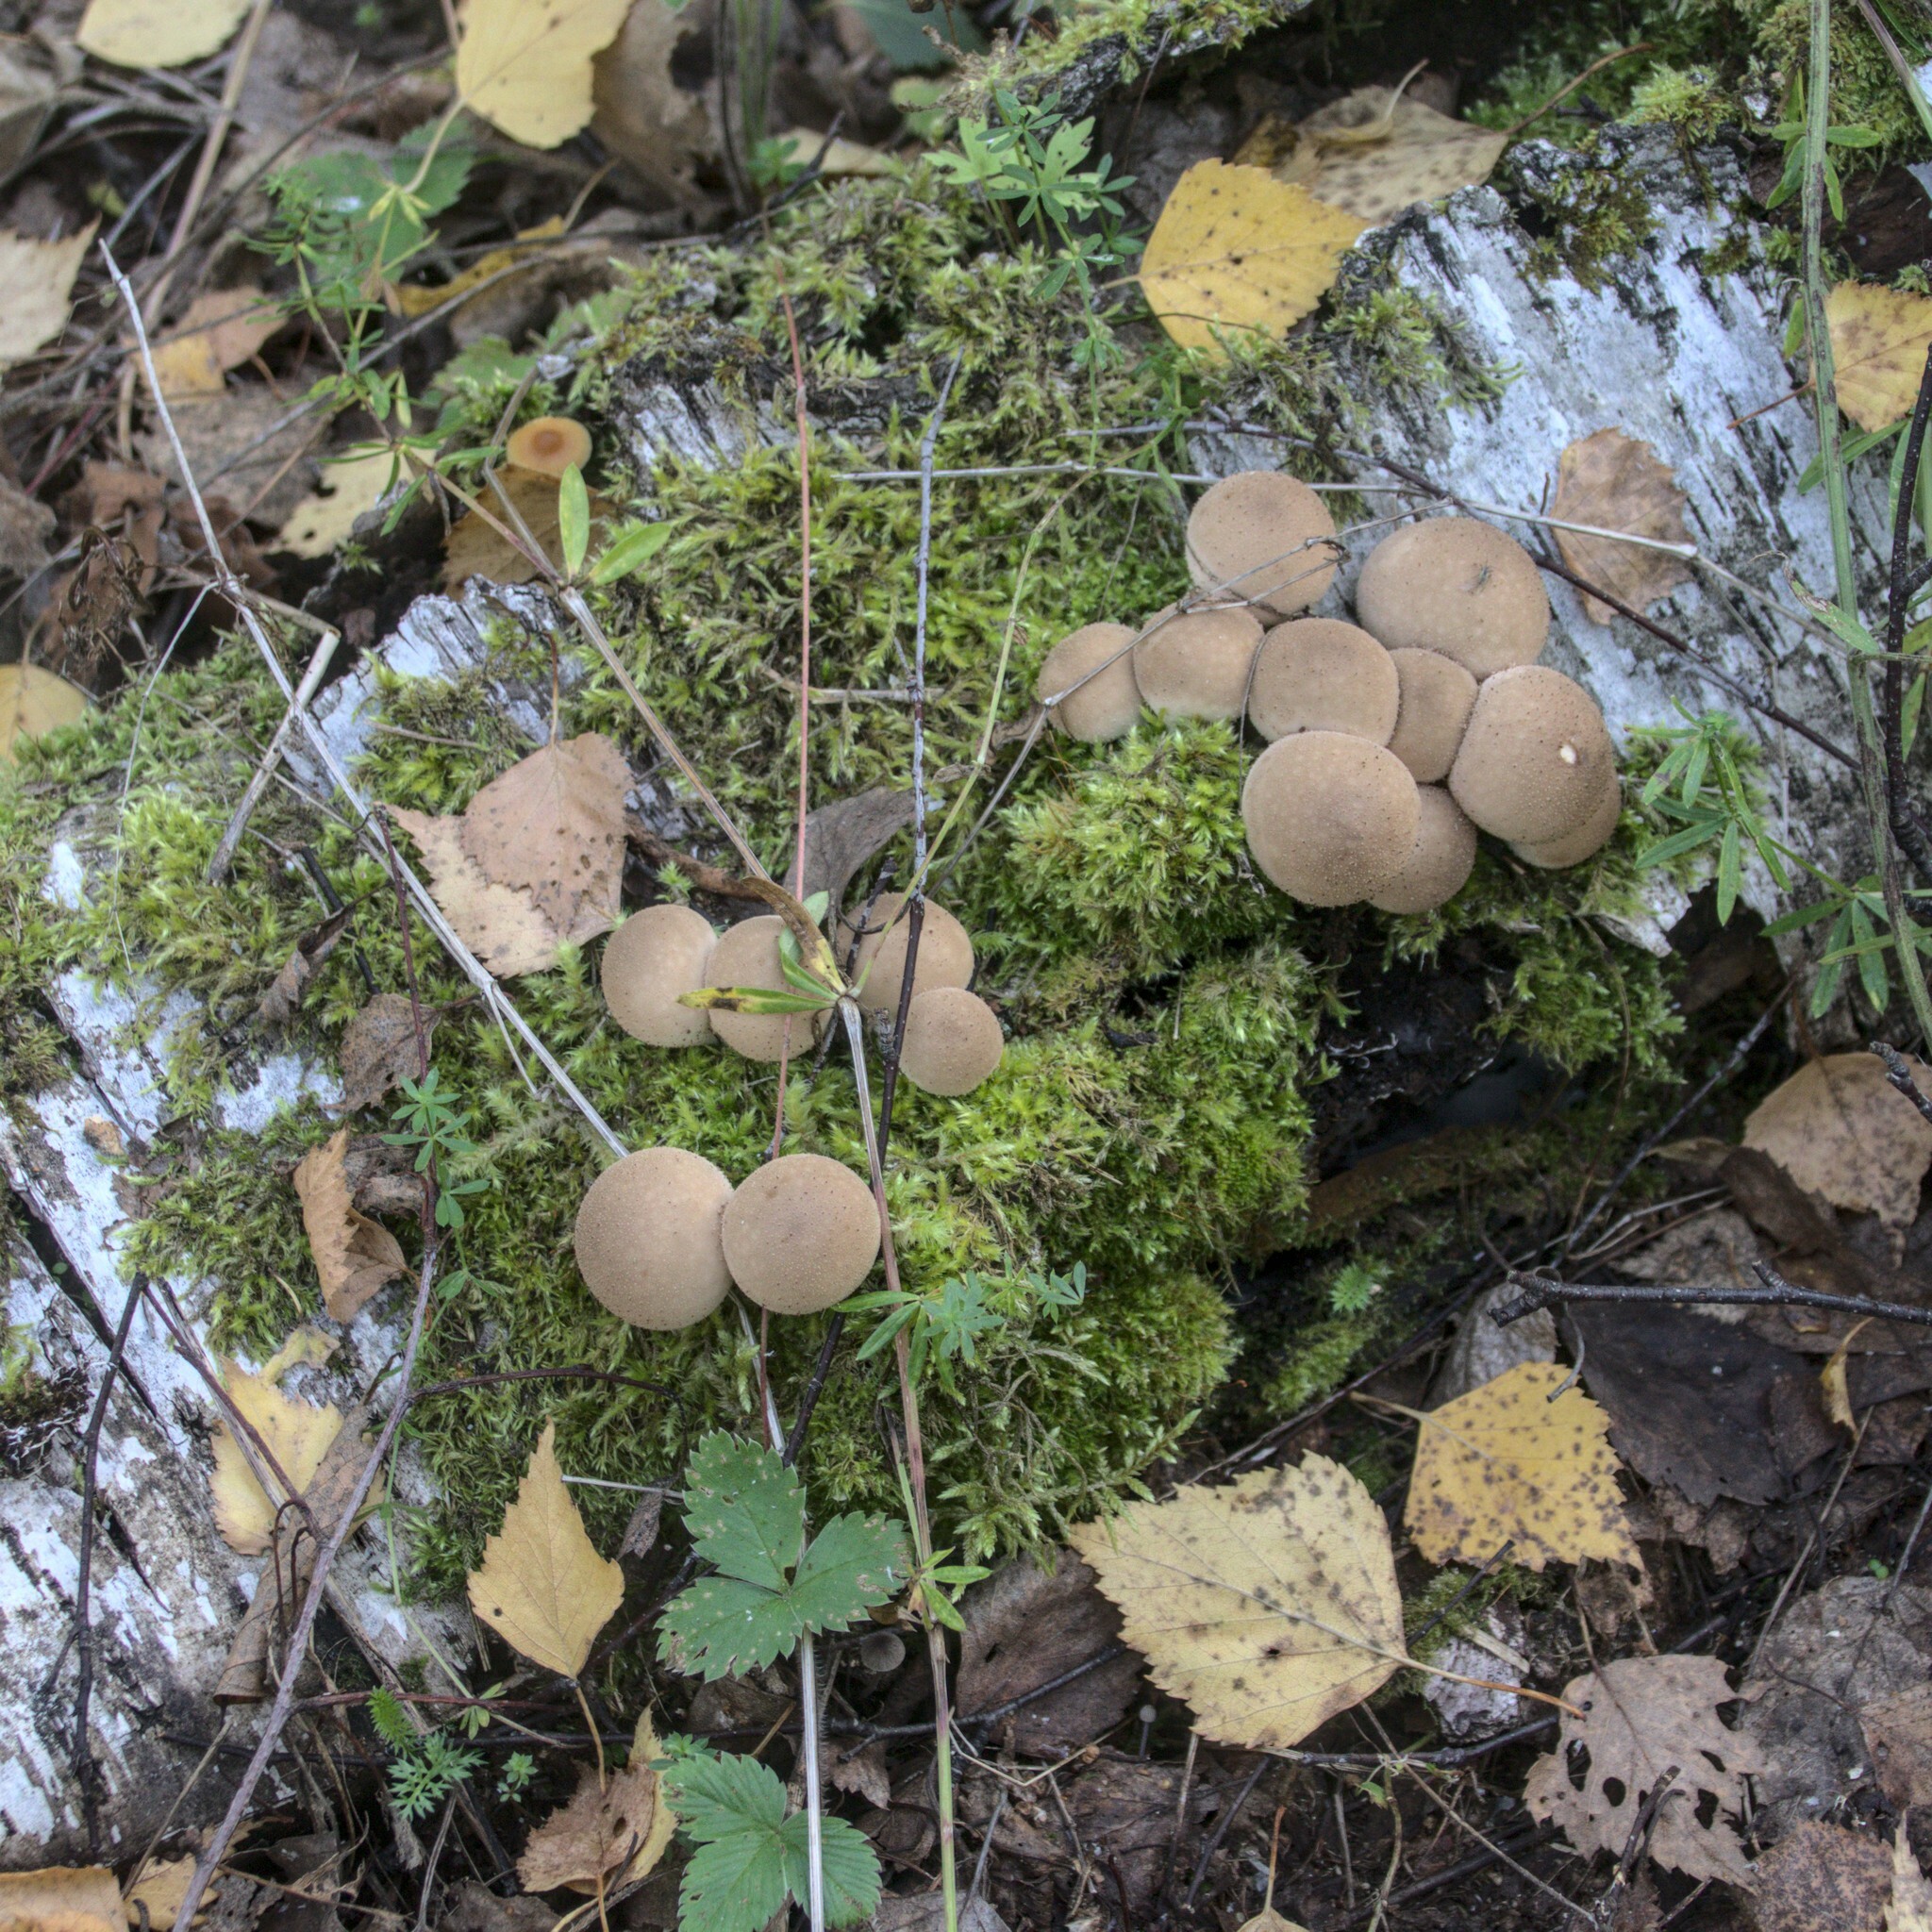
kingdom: Fungi
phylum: Basidiomycota
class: Agaricomycetes
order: Agaricales
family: Lycoperdaceae
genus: Apioperdon
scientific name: Apioperdon pyriforme
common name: Pear-shaped puffball
